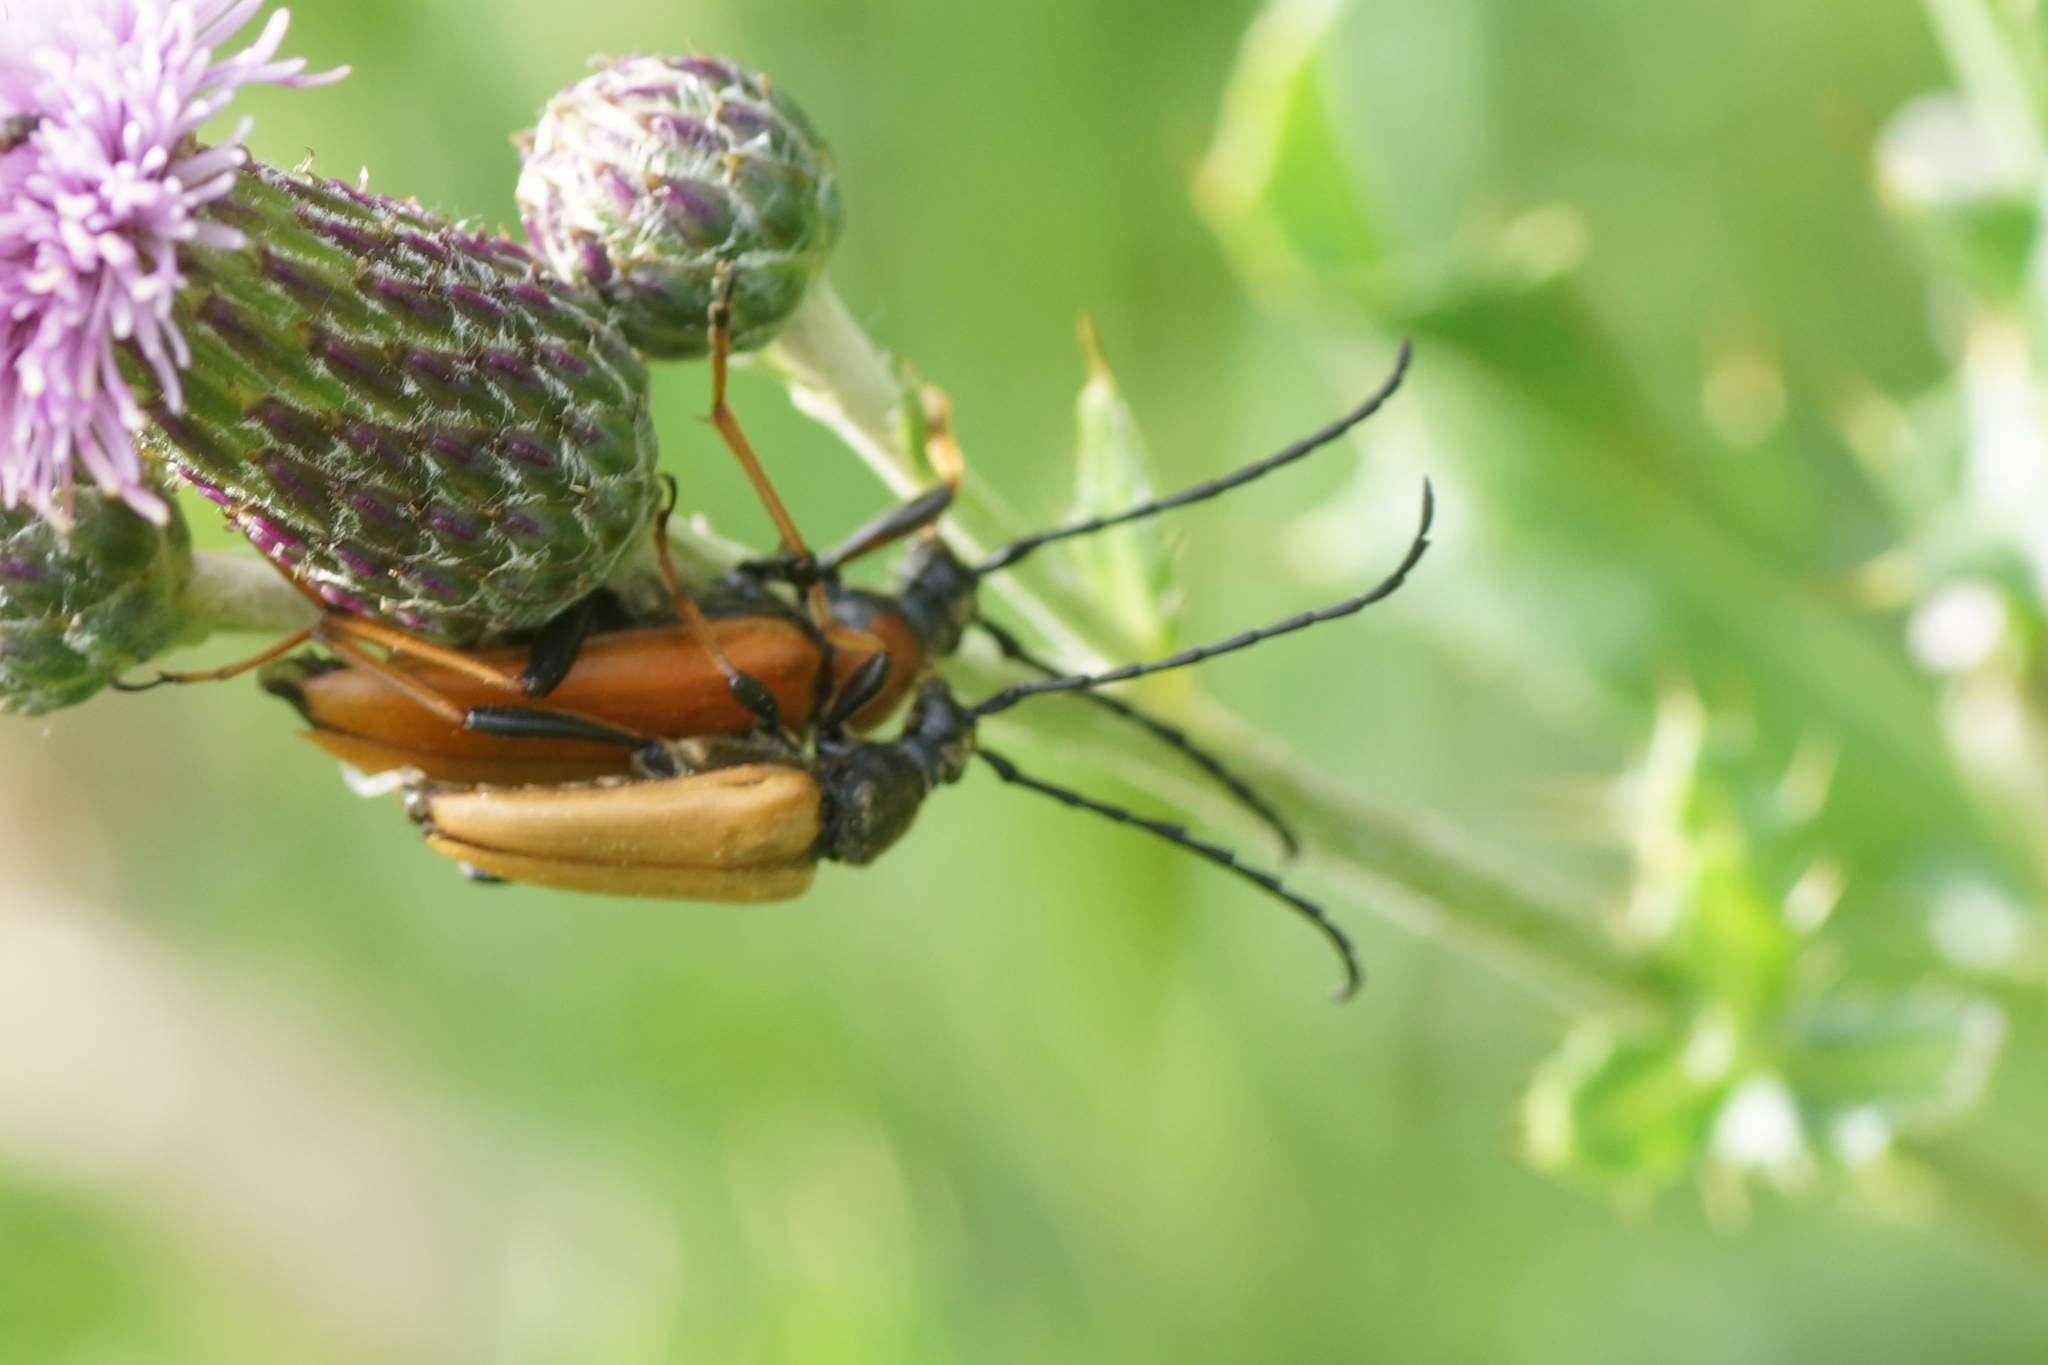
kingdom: Animalia
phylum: Arthropoda
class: Insecta
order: Coleoptera
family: Cerambycidae
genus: Stictoleptura
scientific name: Stictoleptura rubra
